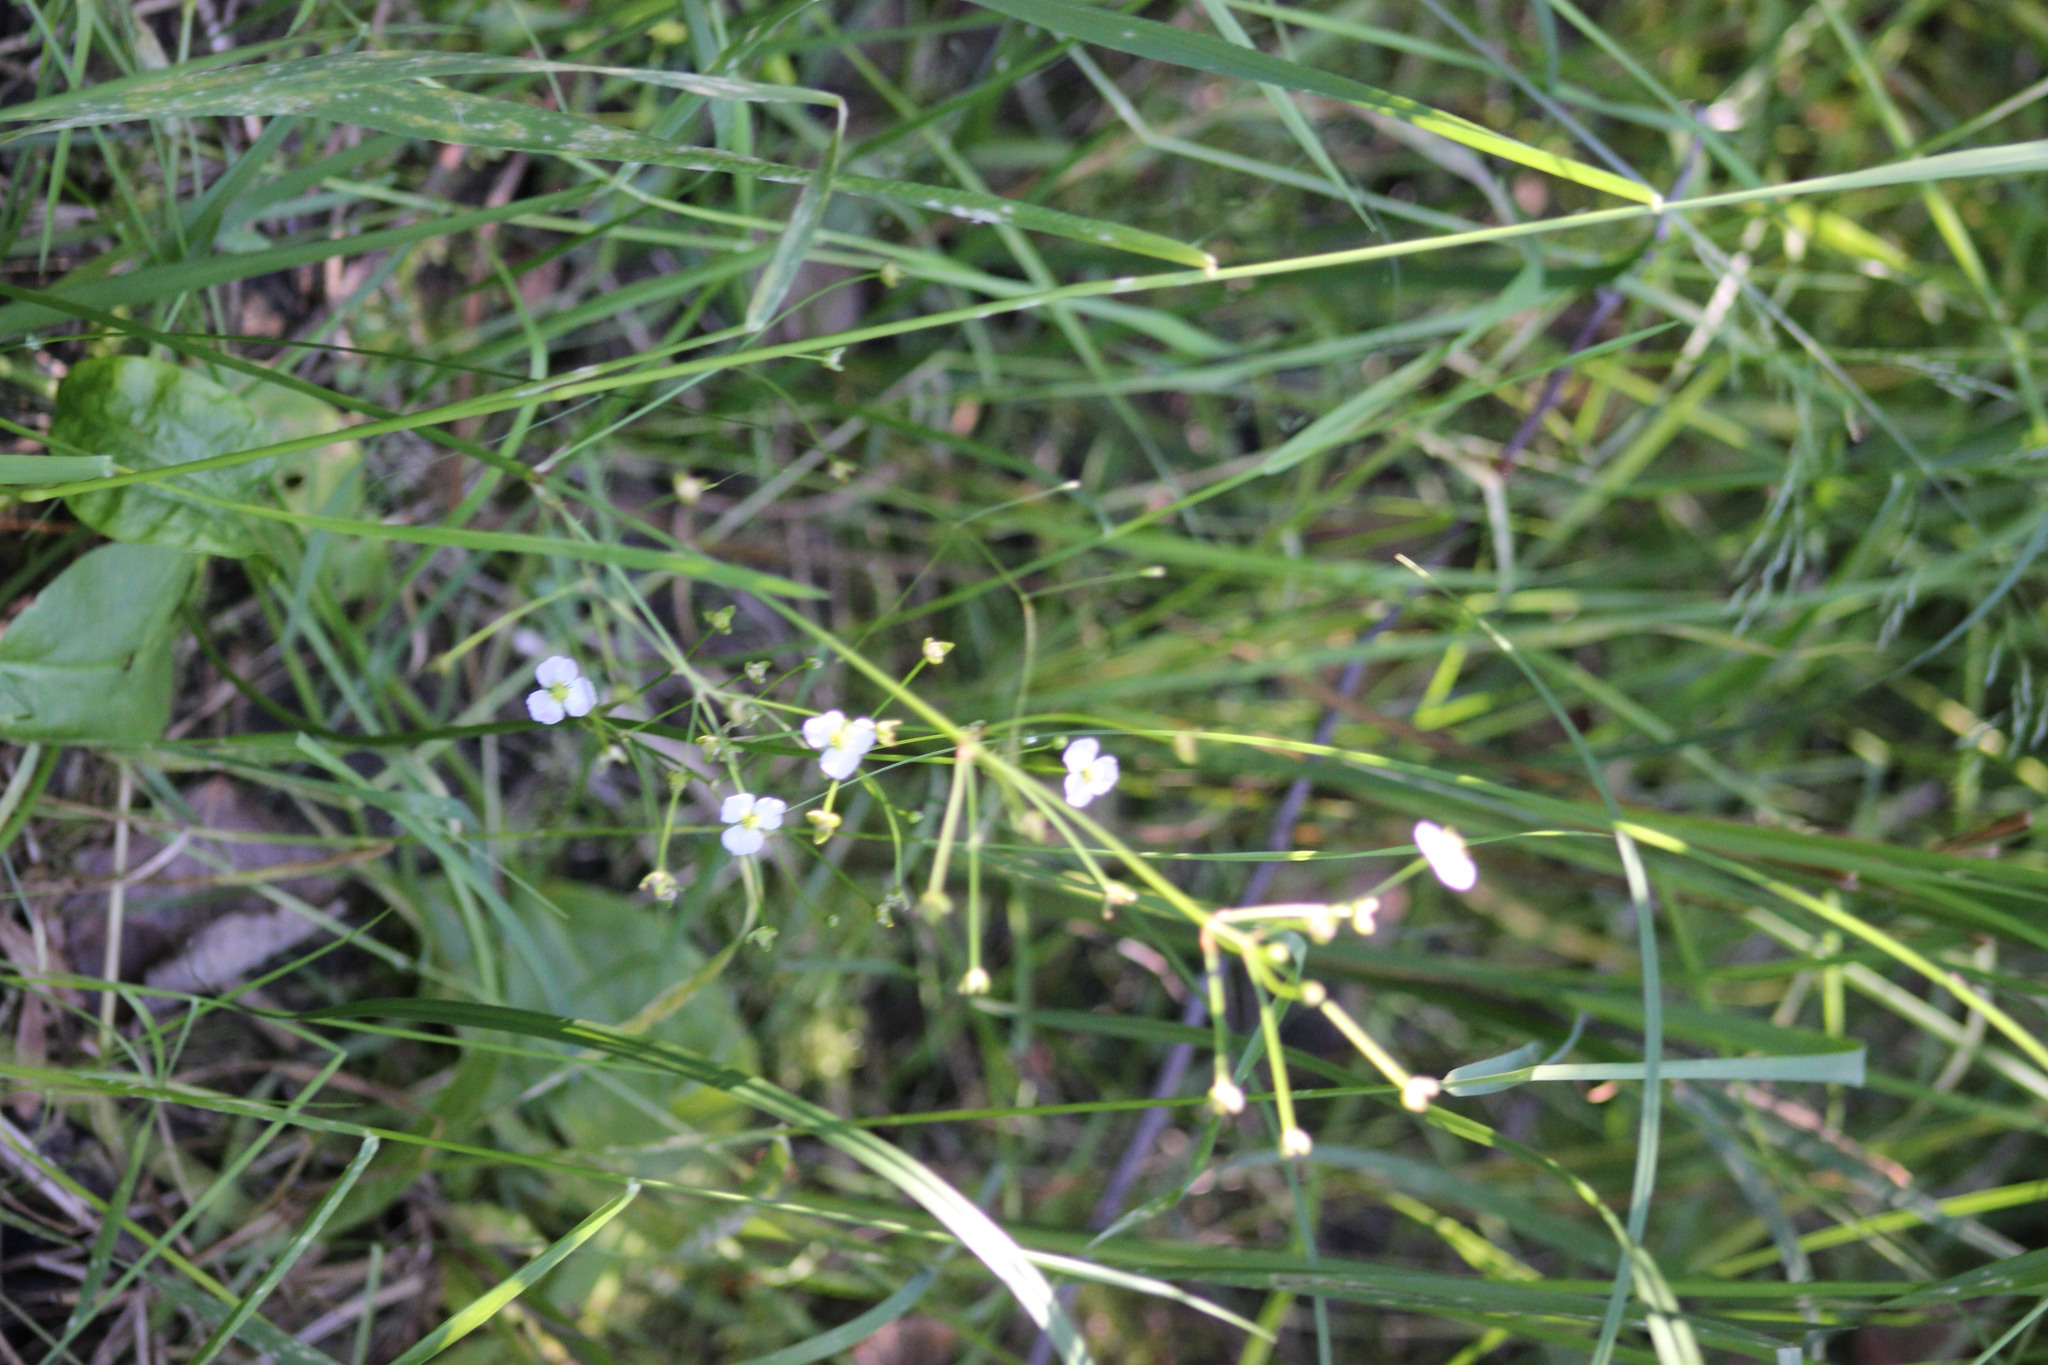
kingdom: Plantae
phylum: Tracheophyta
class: Liliopsida
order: Alismatales
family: Alismataceae
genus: Alisma
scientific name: Alisma plantago-aquatica
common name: Water-plantain
